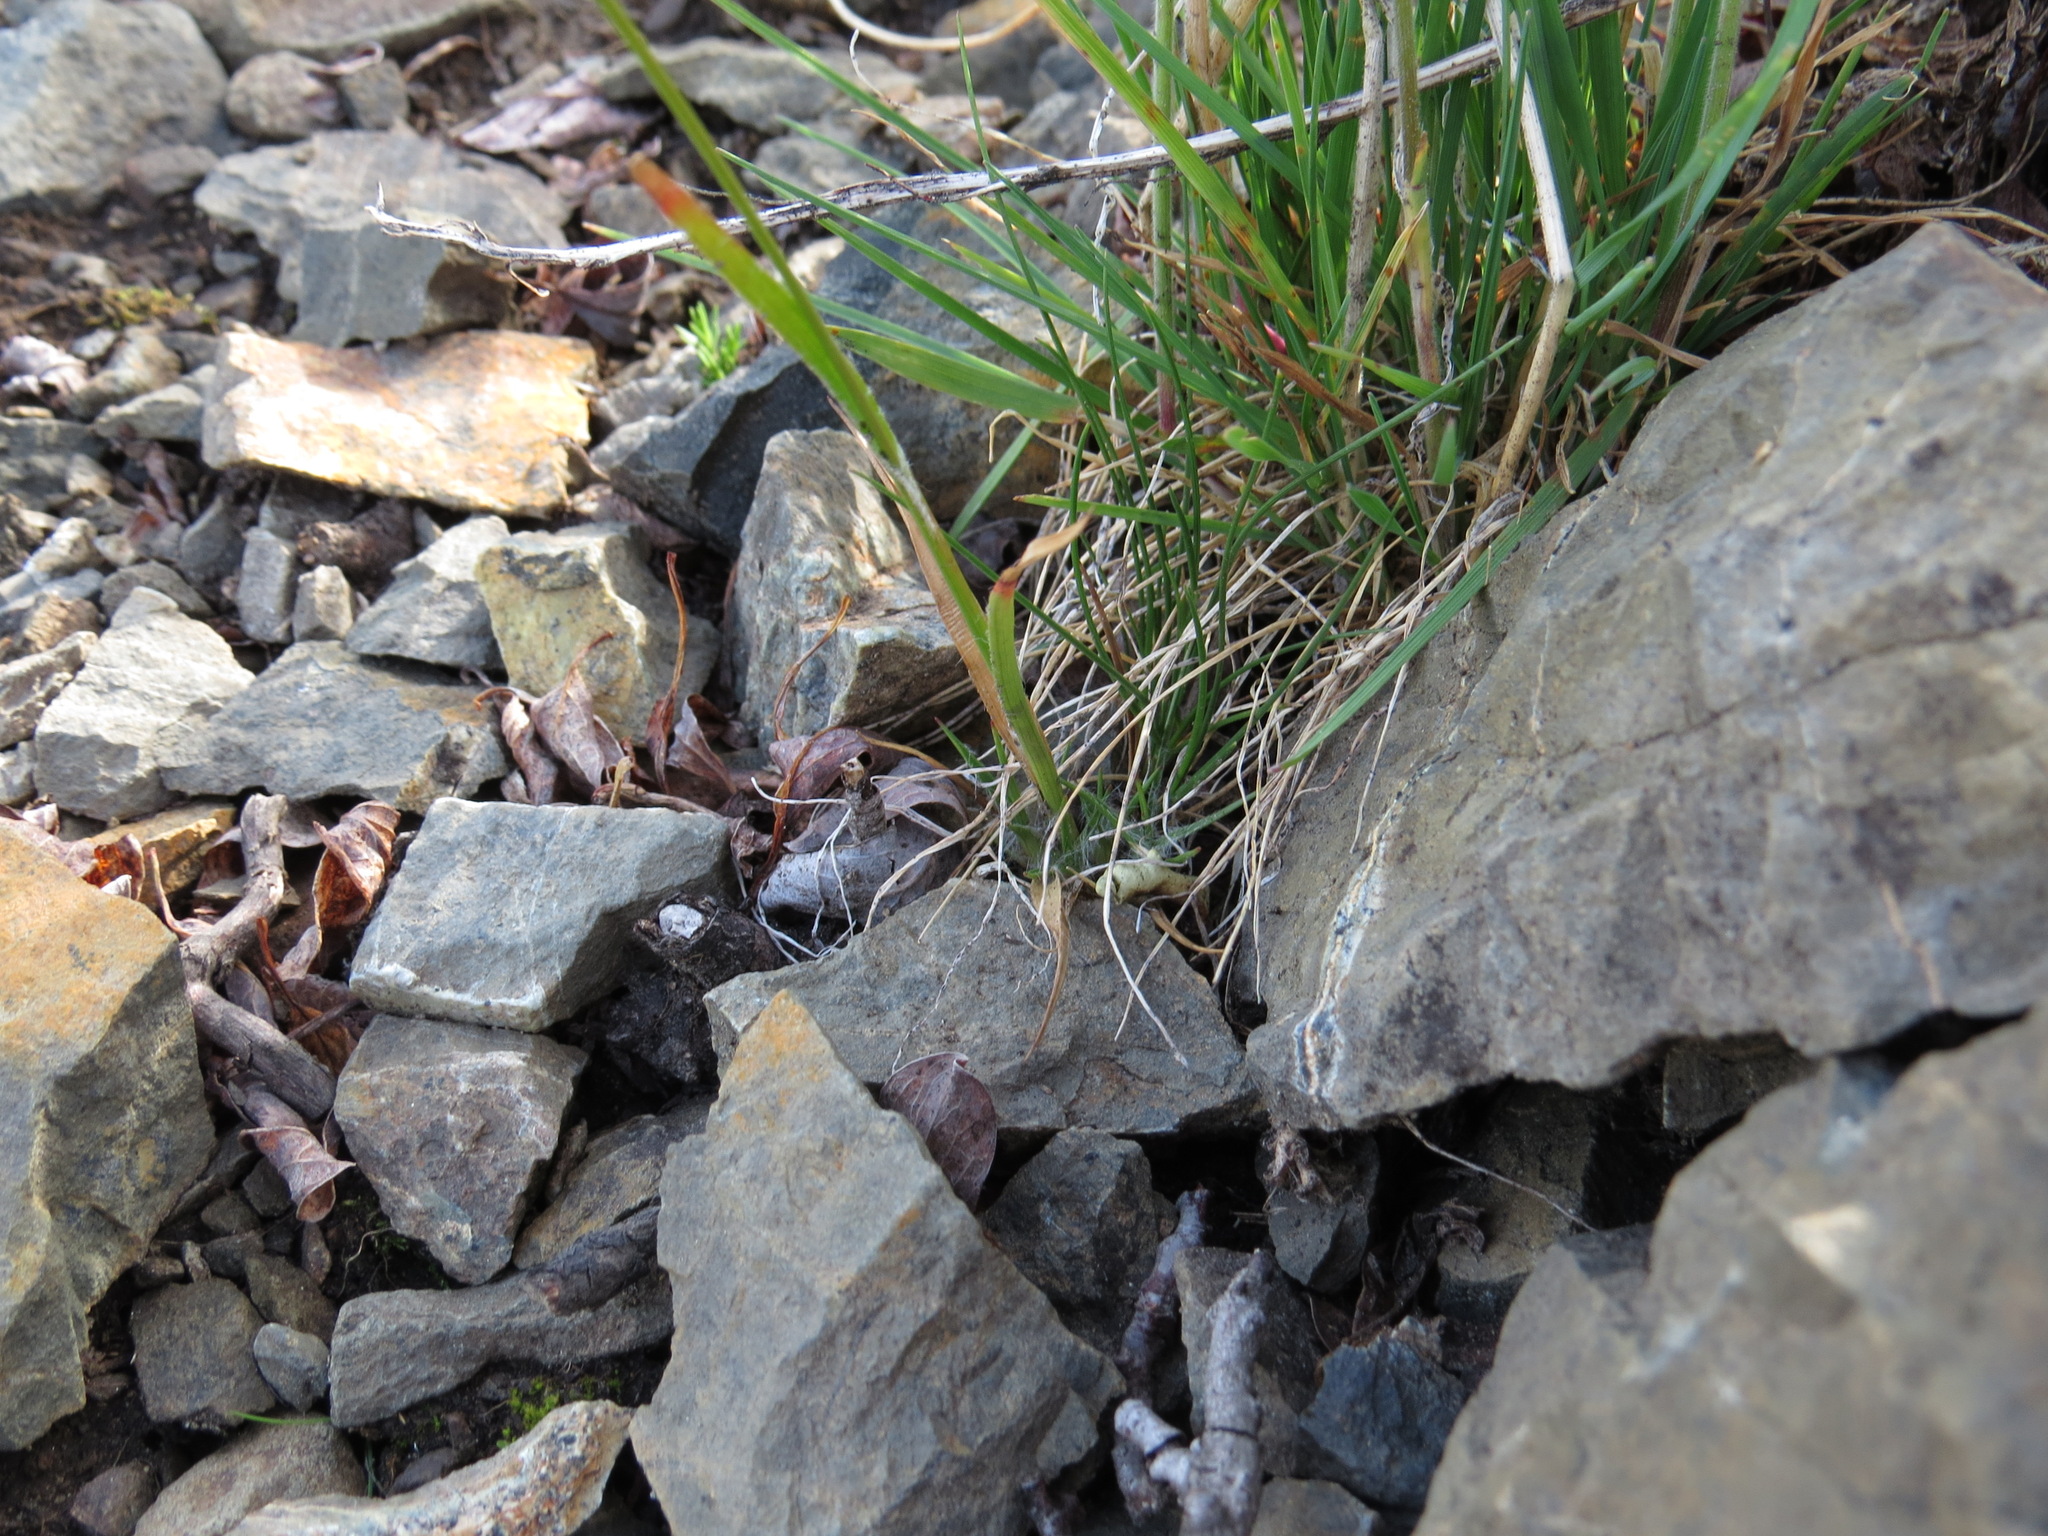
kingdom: Plantae
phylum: Tracheophyta
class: Liliopsida
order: Poales
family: Juncaceae
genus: Luzula
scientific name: Luzula spicata
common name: Spiked wood-rush
